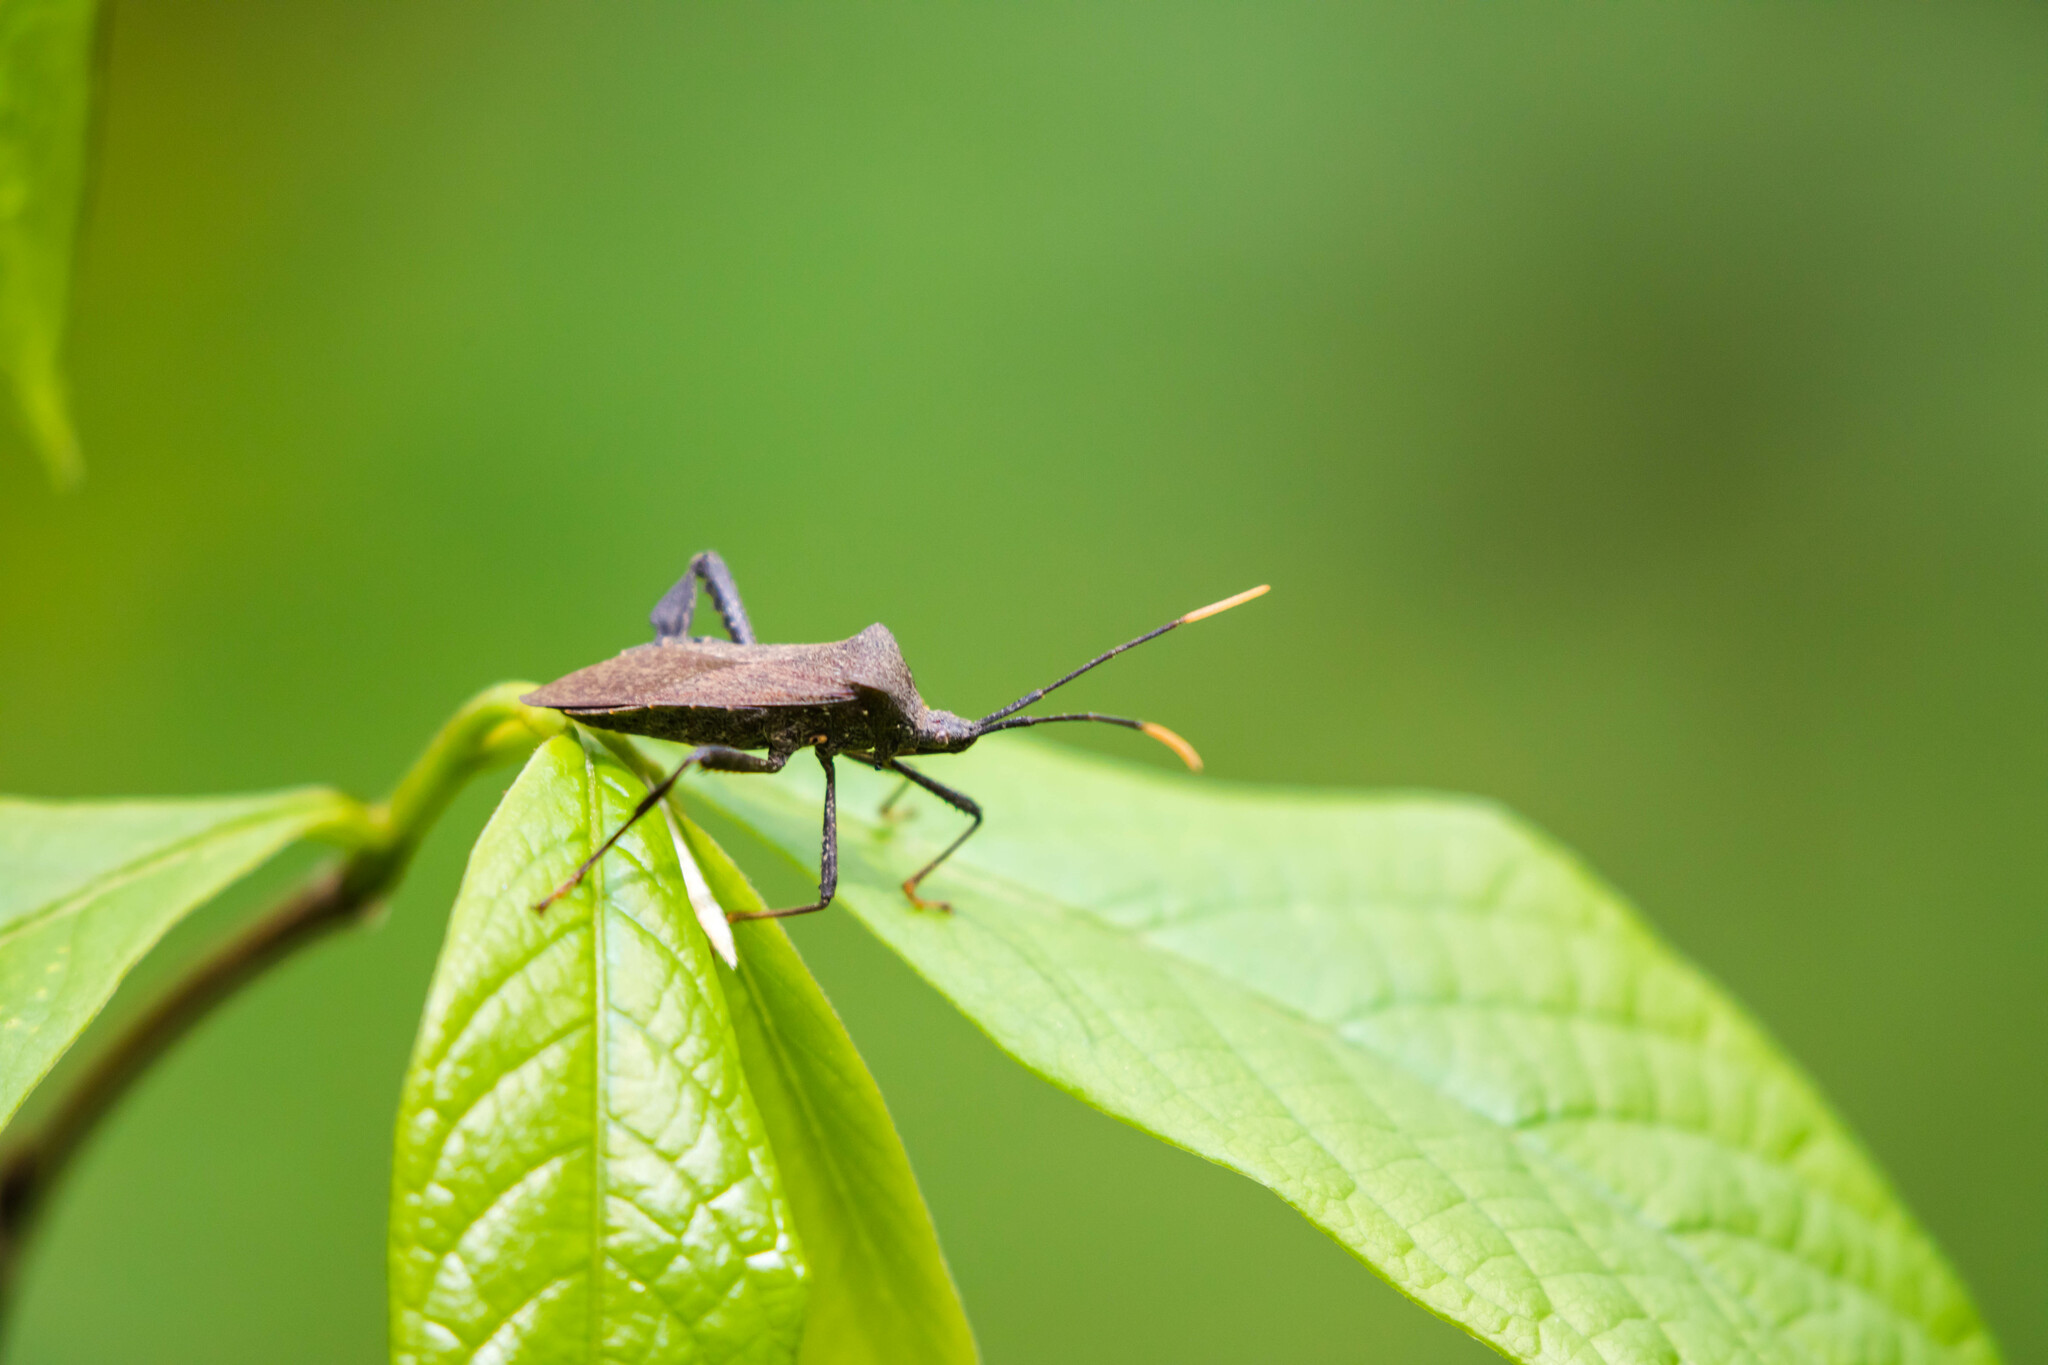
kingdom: Animalia
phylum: Arthropoda
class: Insecta
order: Hemiptera
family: Coreidae
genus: Acanthocephala
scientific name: Acanthocephala terminalis
